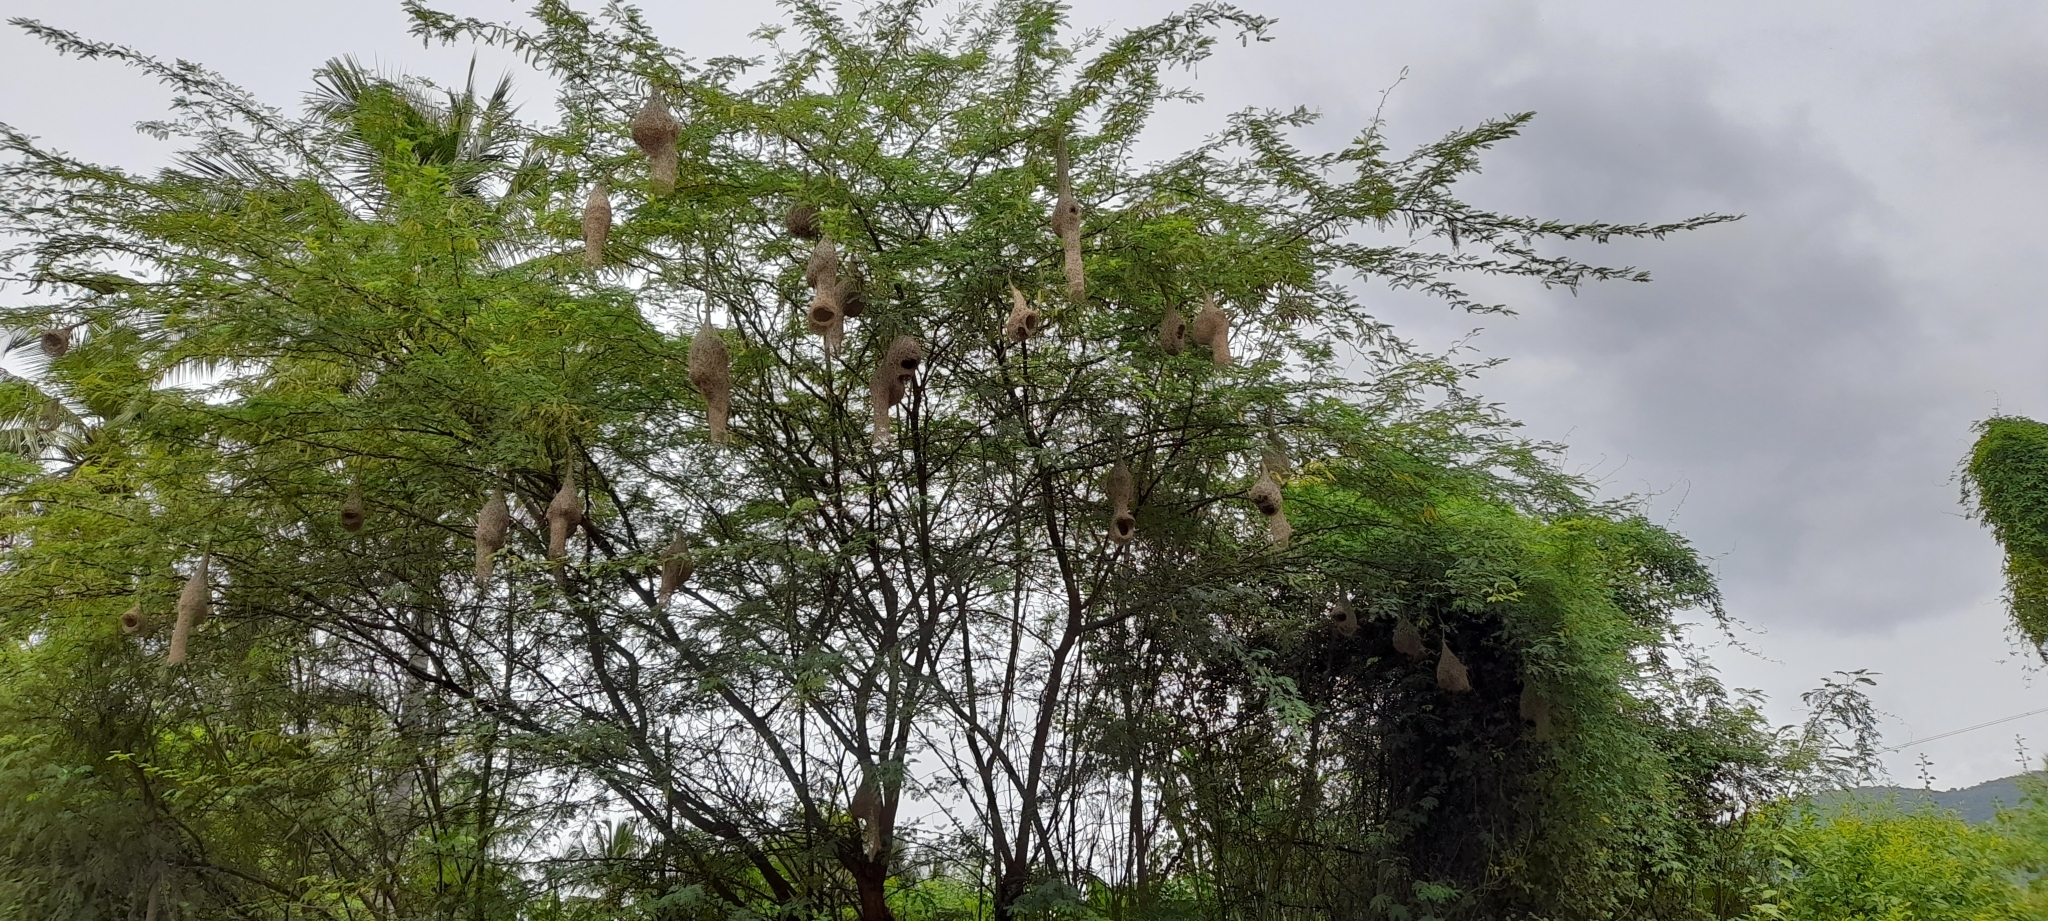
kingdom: Animalia
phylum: Chordata
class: Aves
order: Passeriformes
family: Ploceidae
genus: Ploceus
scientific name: Ploceus philippinus
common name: Baya weaver
